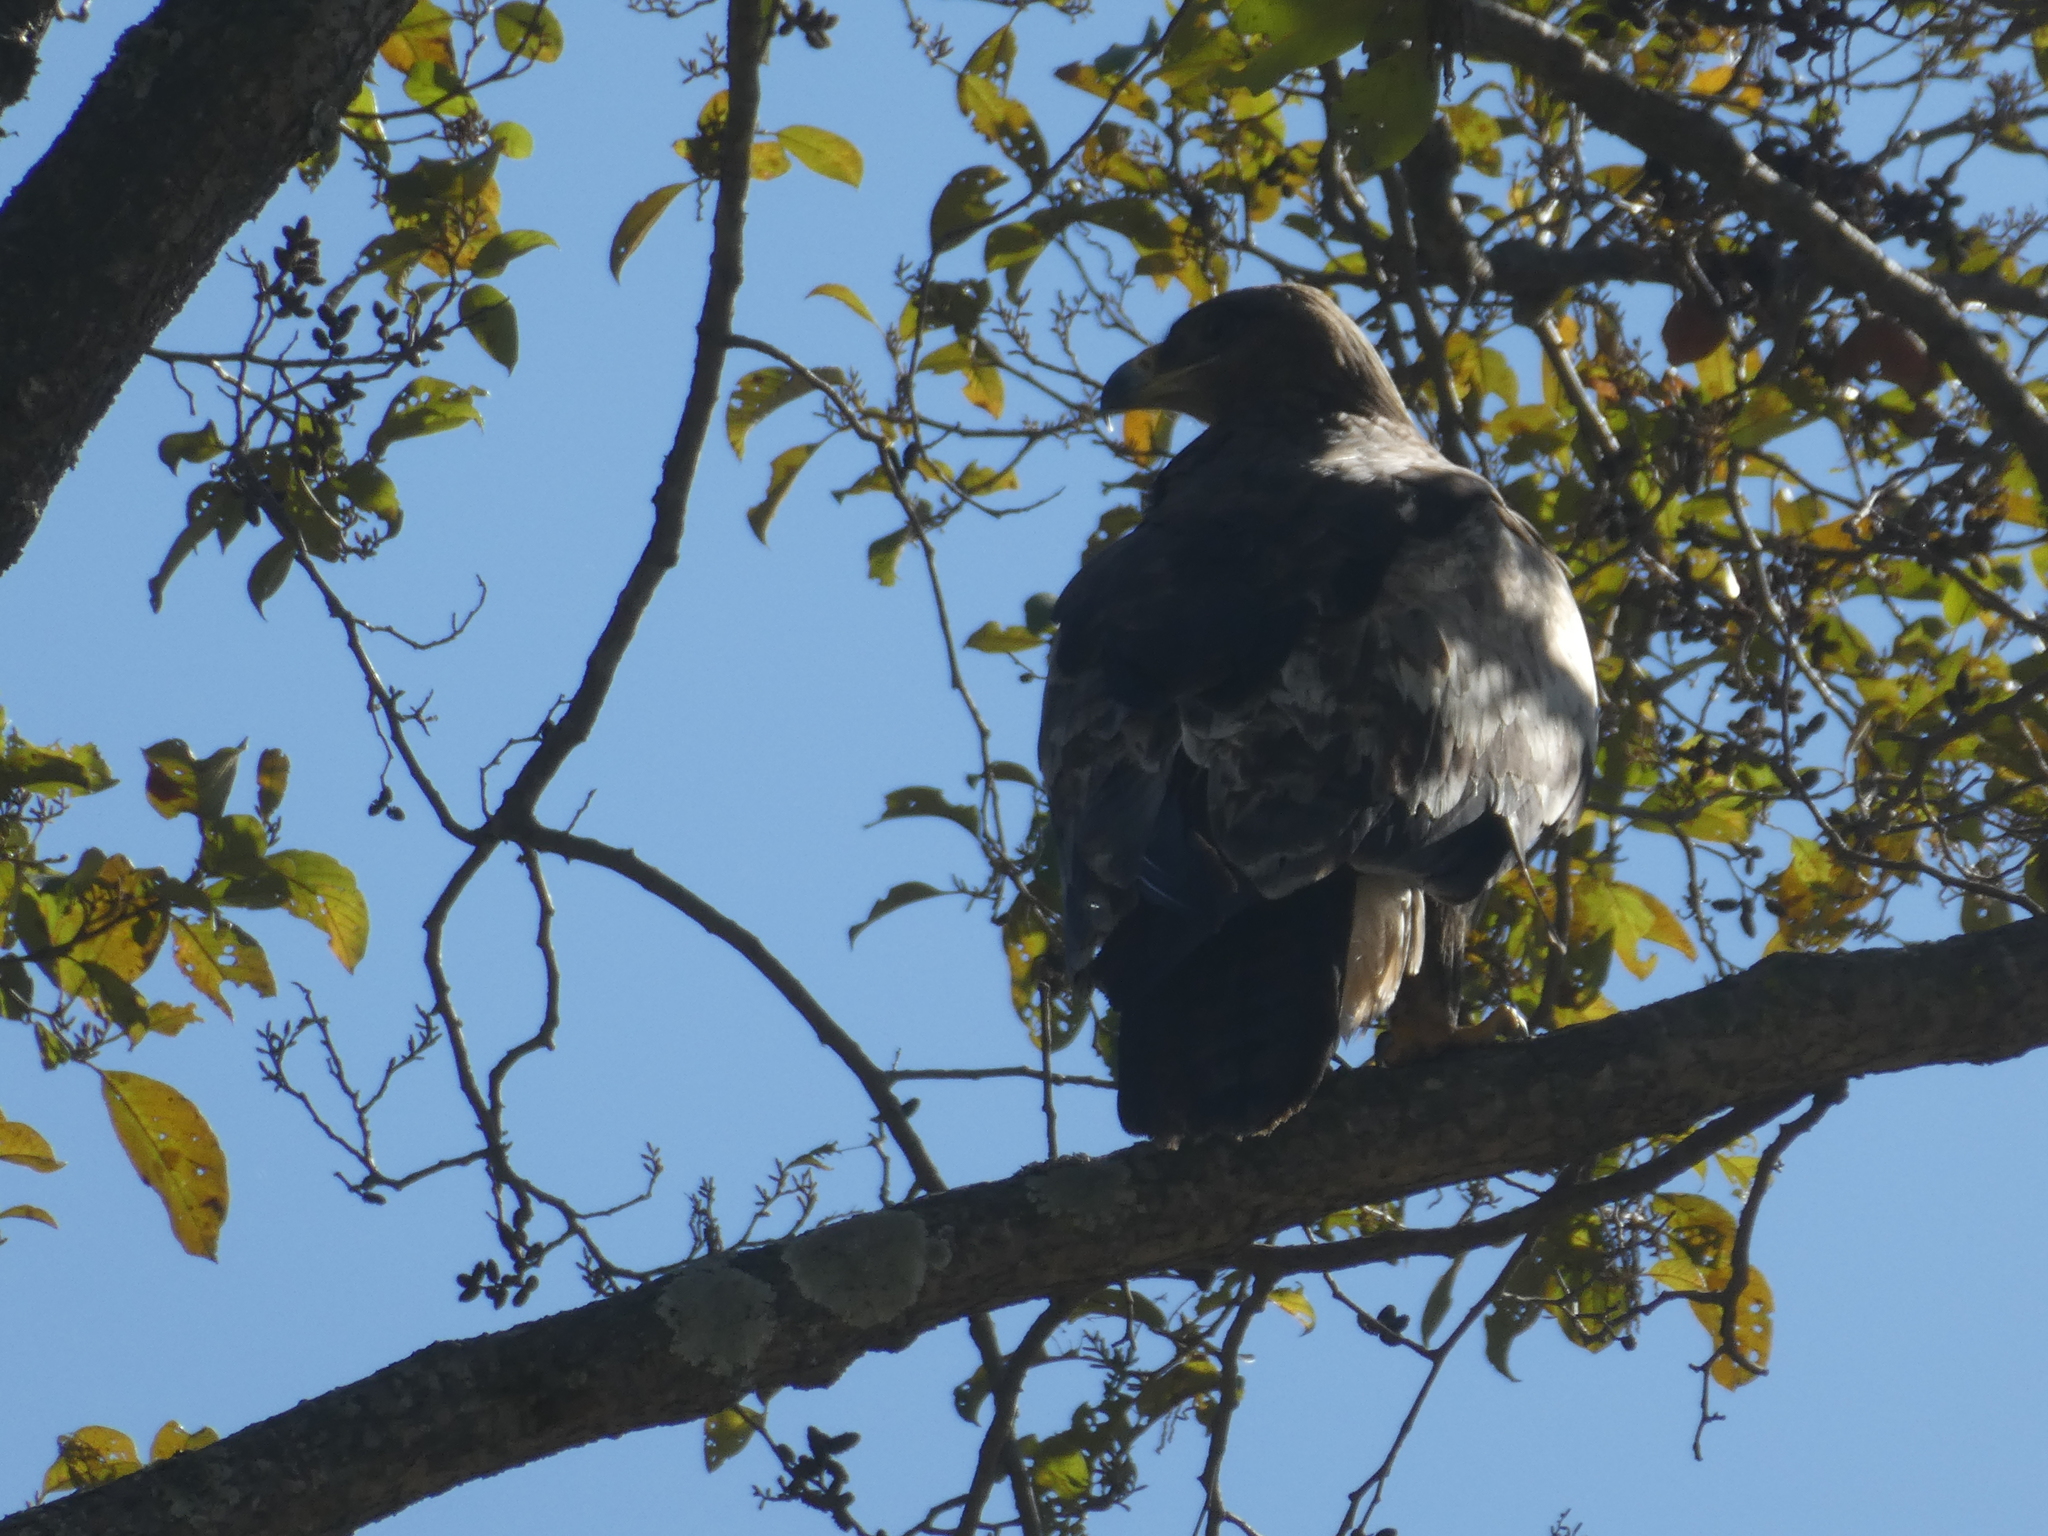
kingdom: Animalia
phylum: Chordata
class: Aves
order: Accipitriformes
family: Accipitridae
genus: Aquila
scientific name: Aquila nipalensis
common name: Steppe eagle
